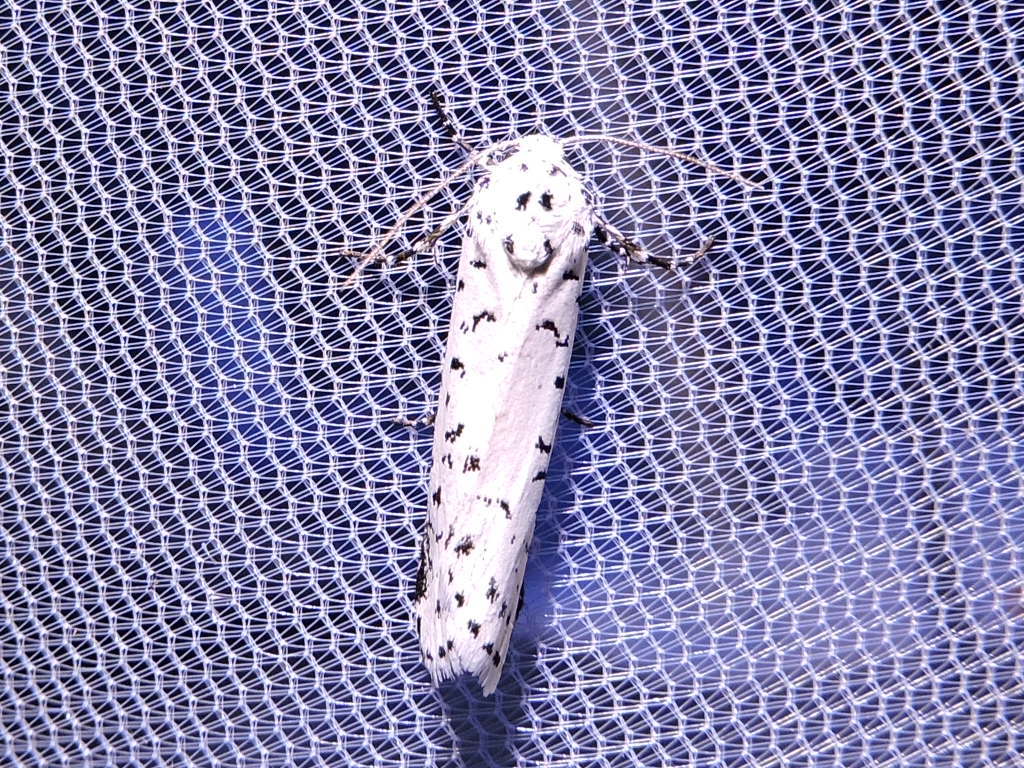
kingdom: Animalia
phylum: Arthropoda
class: Insecta
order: Lepidoptera
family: Noctuidae
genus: Cerathosia
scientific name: Cerathosia tricolor
